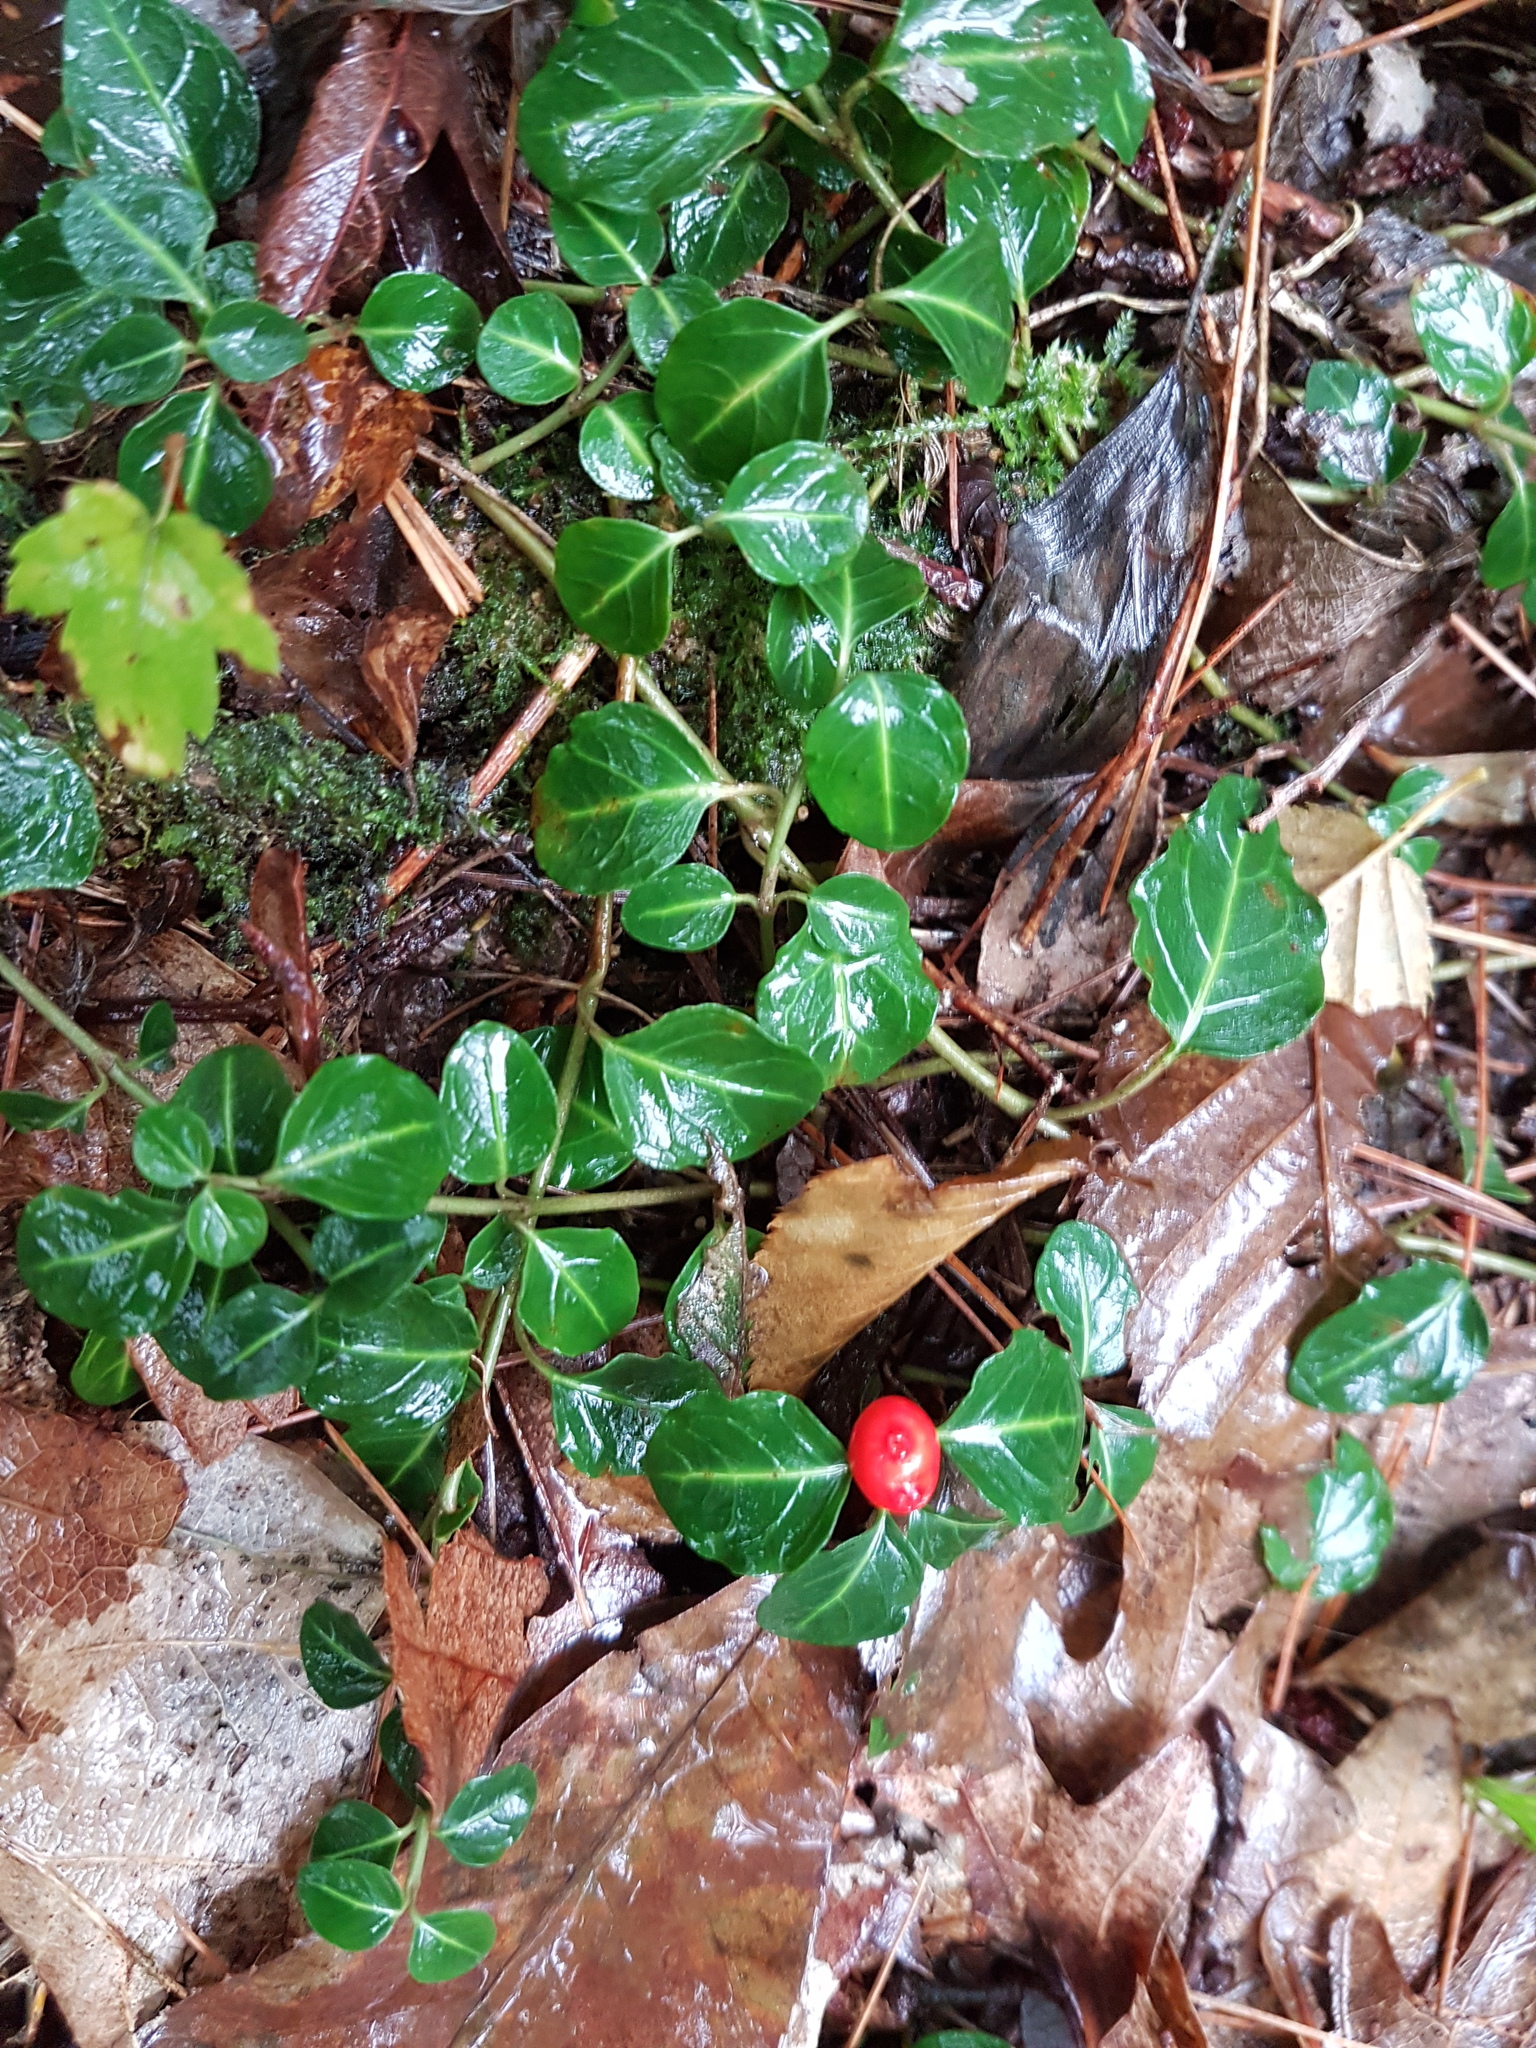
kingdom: Plantae
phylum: Tracheophyta
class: Magnoliopsida
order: Gentianales
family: Rubiaceae
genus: Mitchella
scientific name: Mitchella repens
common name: Partridge-berry
